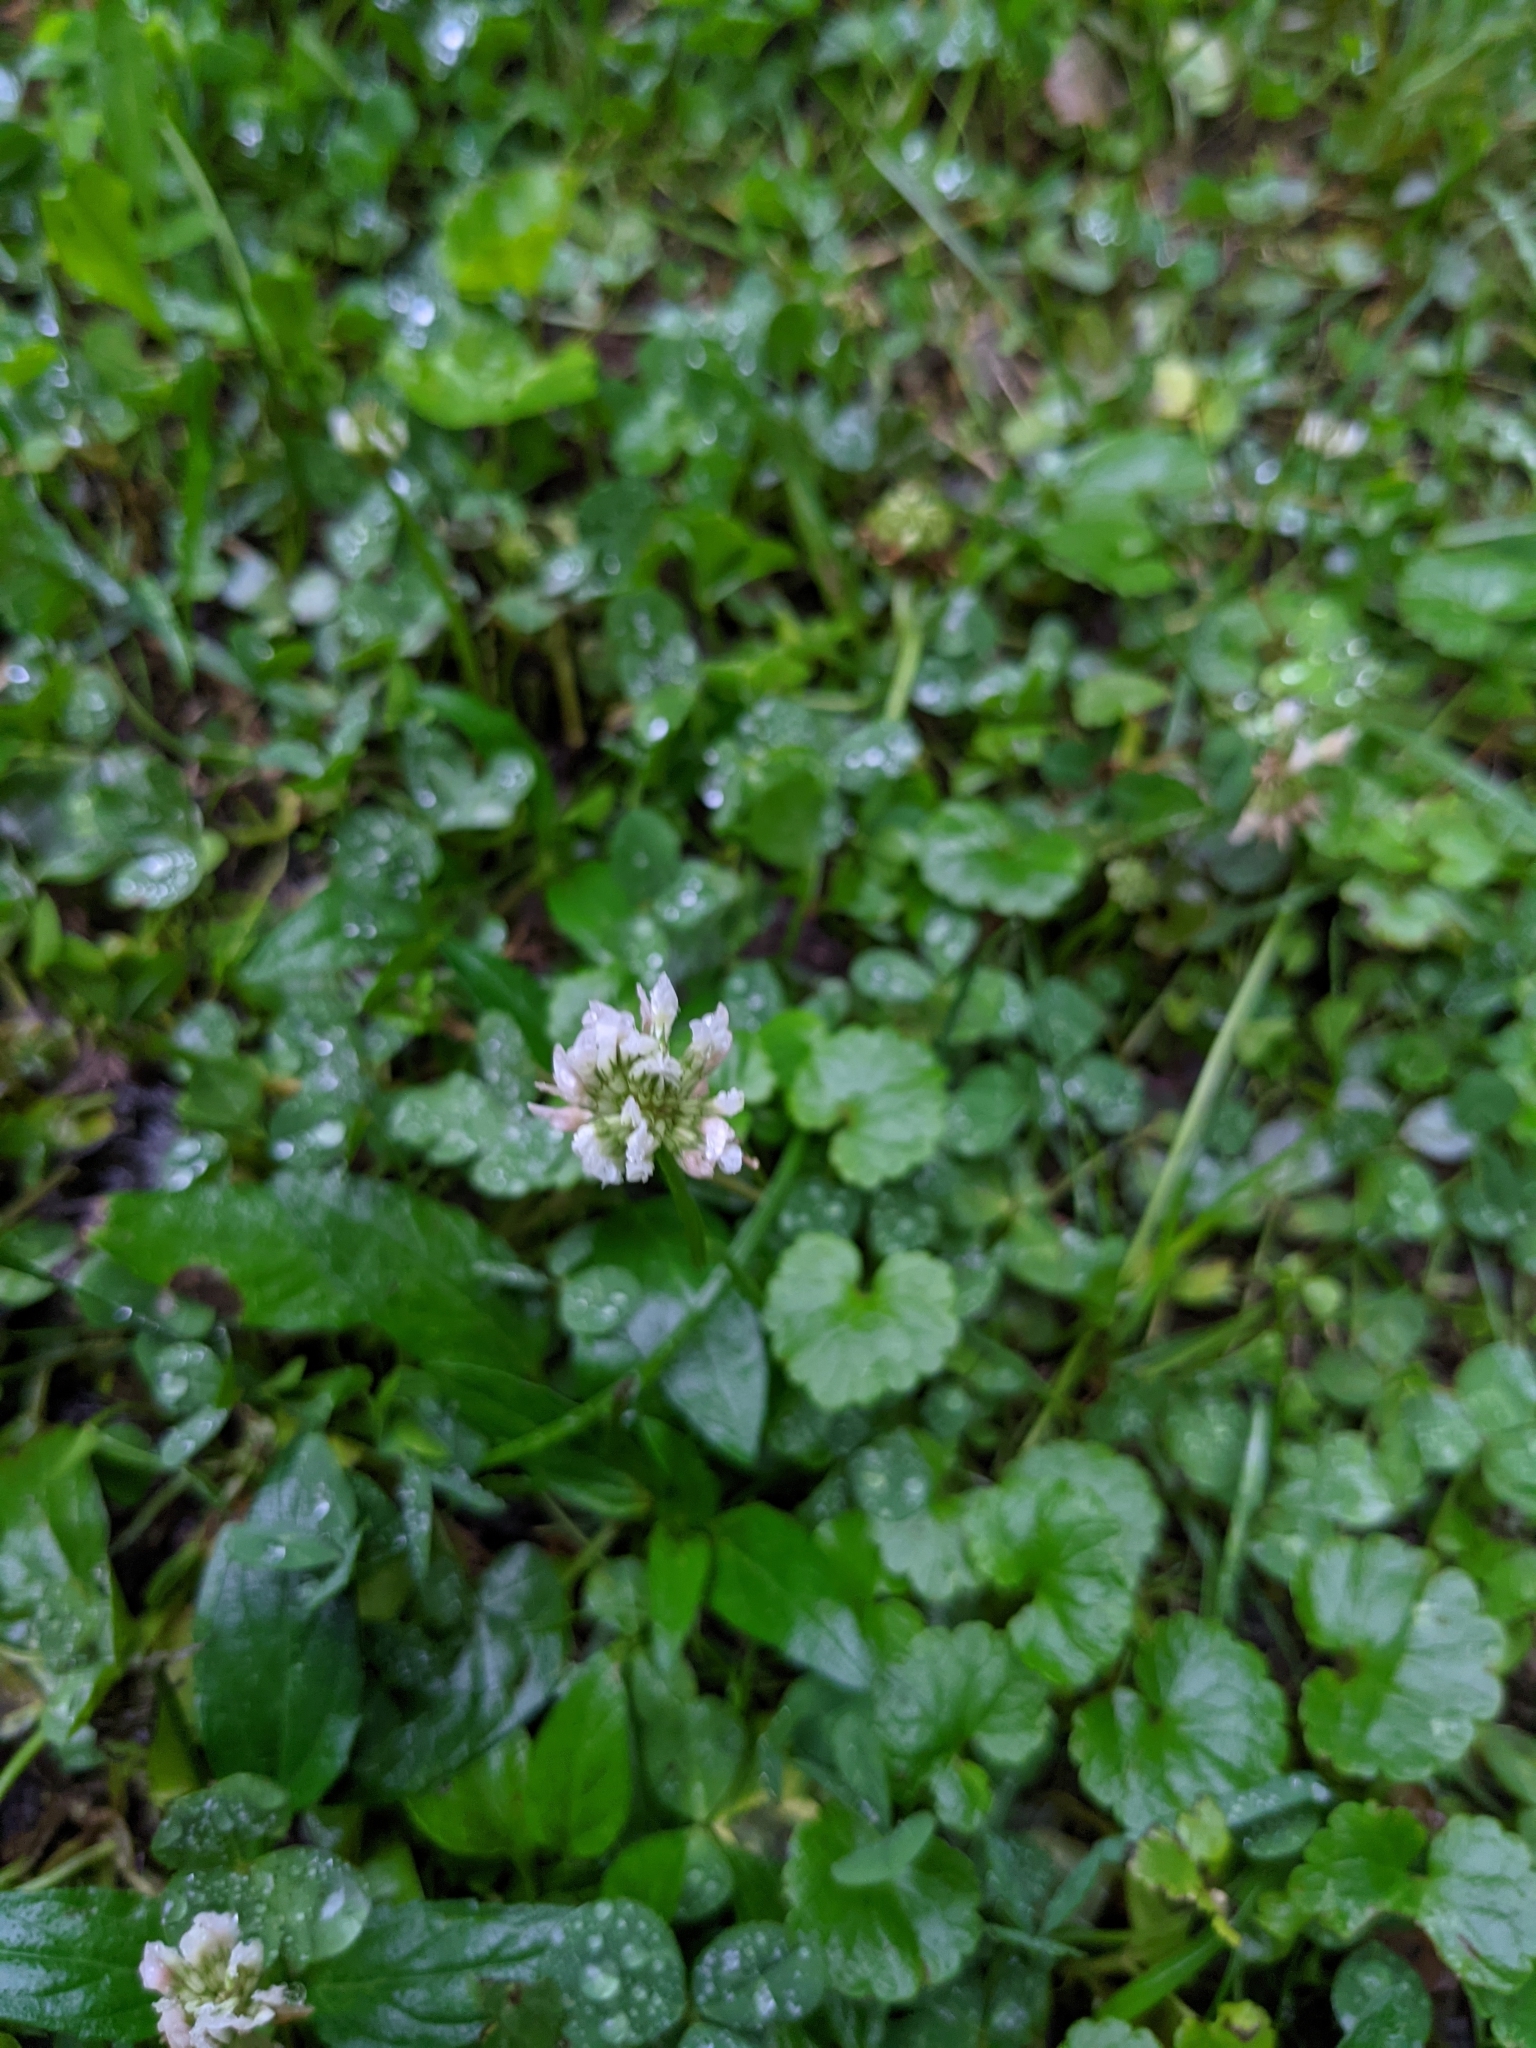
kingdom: Plantae
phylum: Tracheophyta
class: Magnoliopsida
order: Fabales
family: Fabaceae
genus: Trifolium
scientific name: Trifolium repens
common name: White clover
